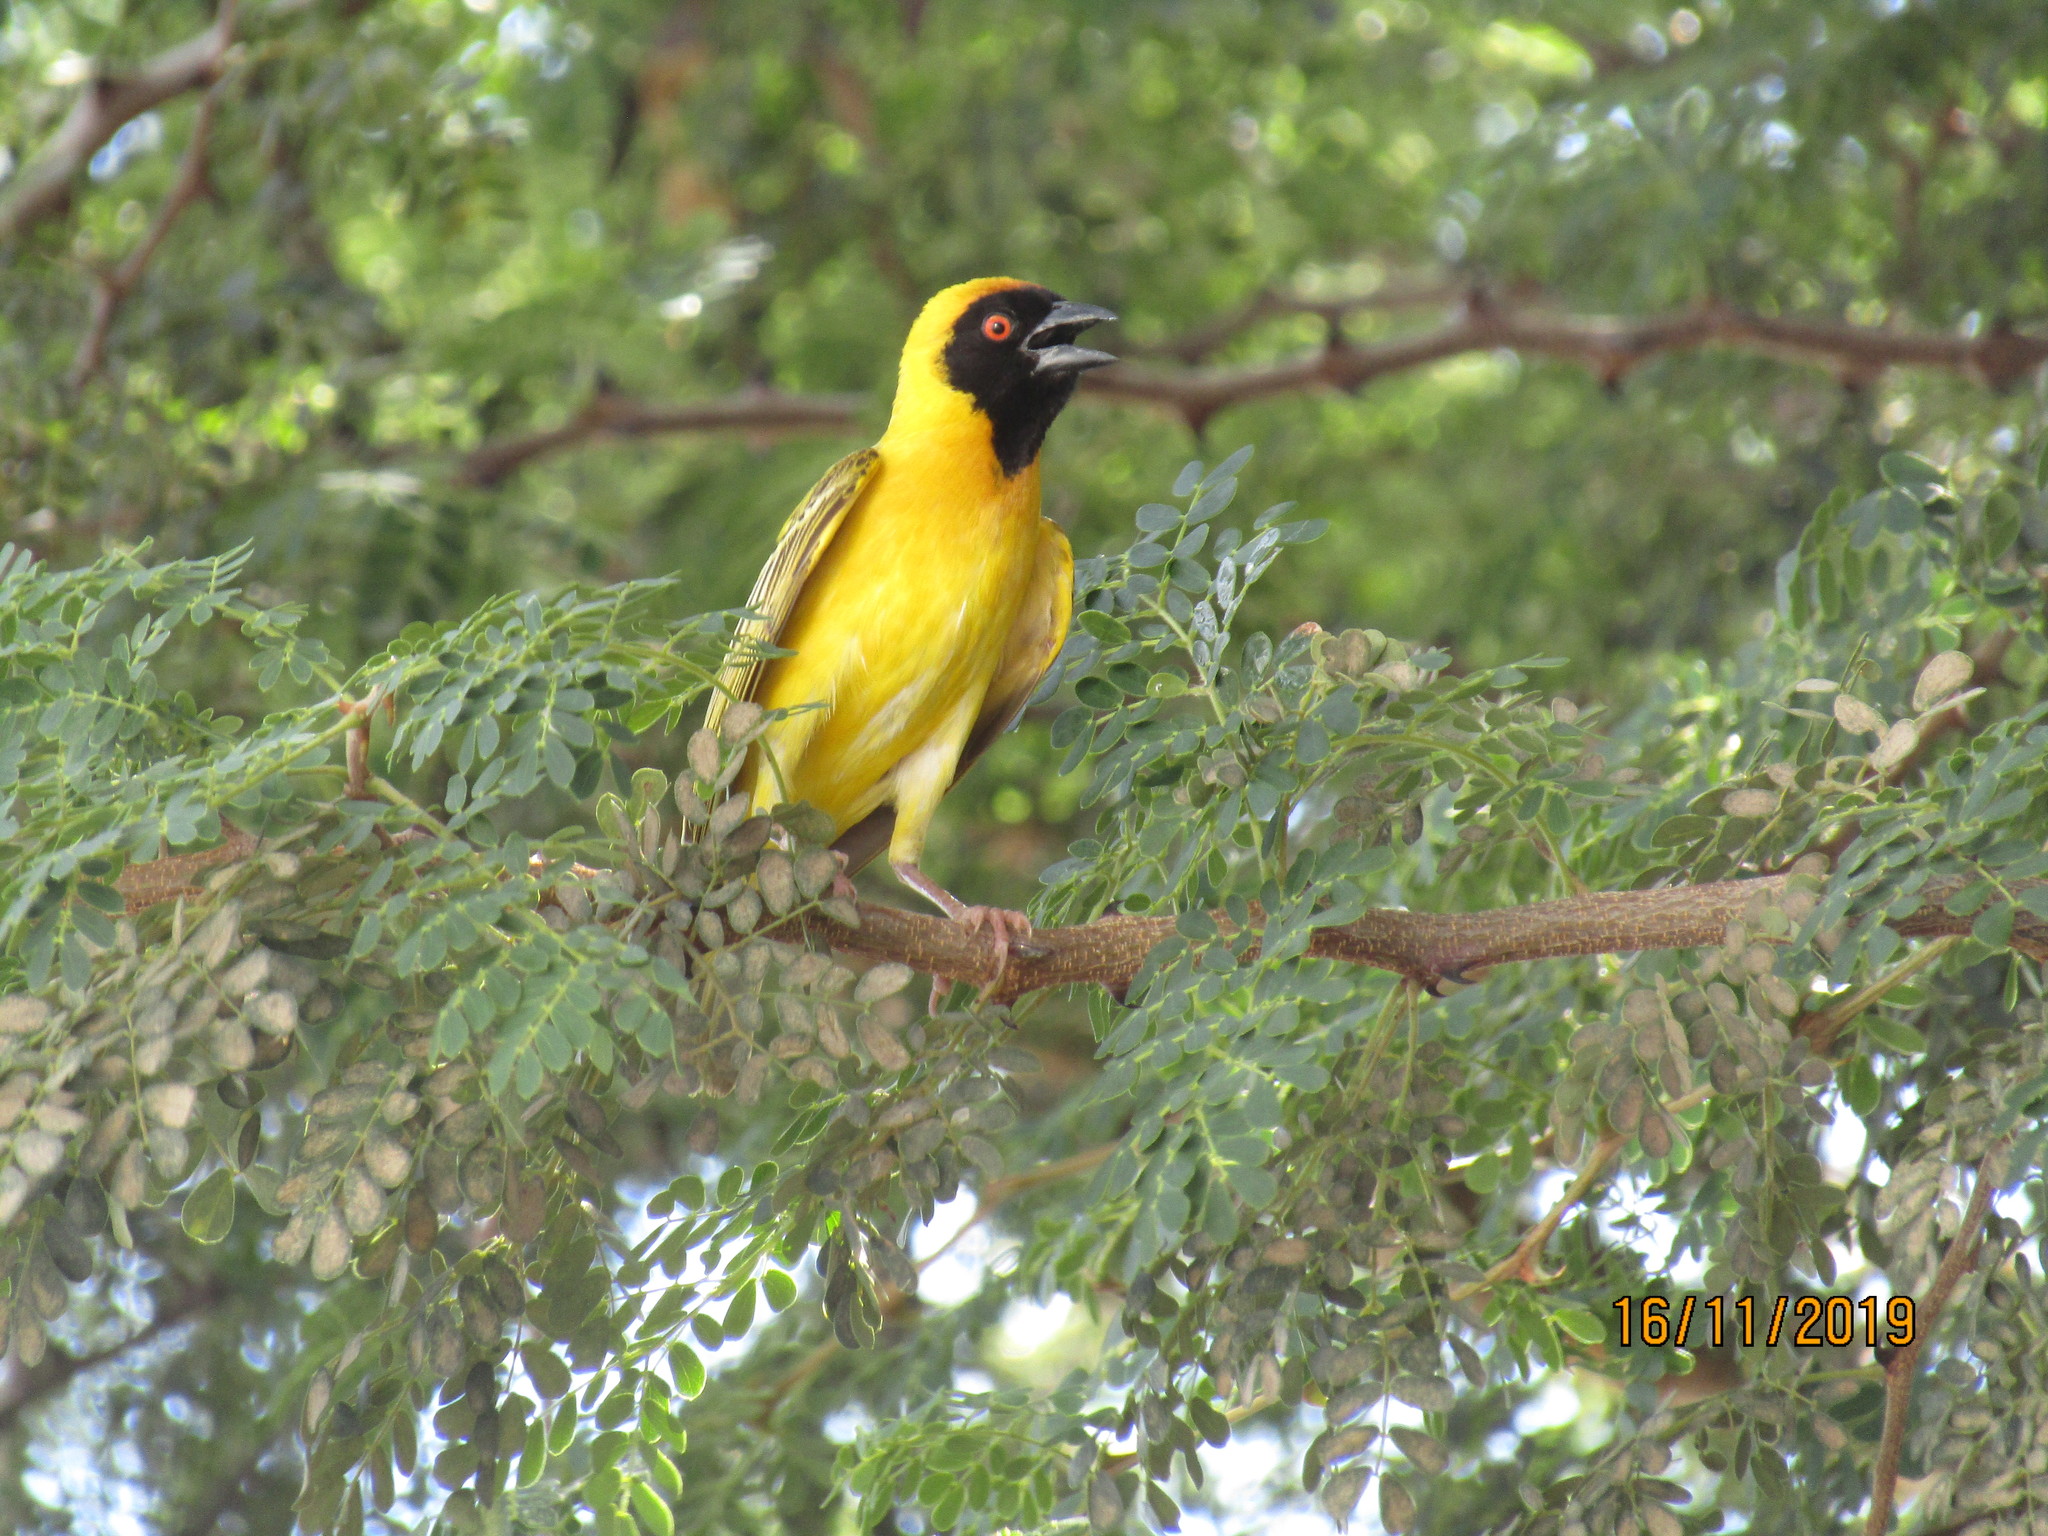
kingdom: Animalia
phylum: Chordata
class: Aves
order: Passeriformes
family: Ploceidae
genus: Ploceus
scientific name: Ploceus velatus
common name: Southern masked weaver
